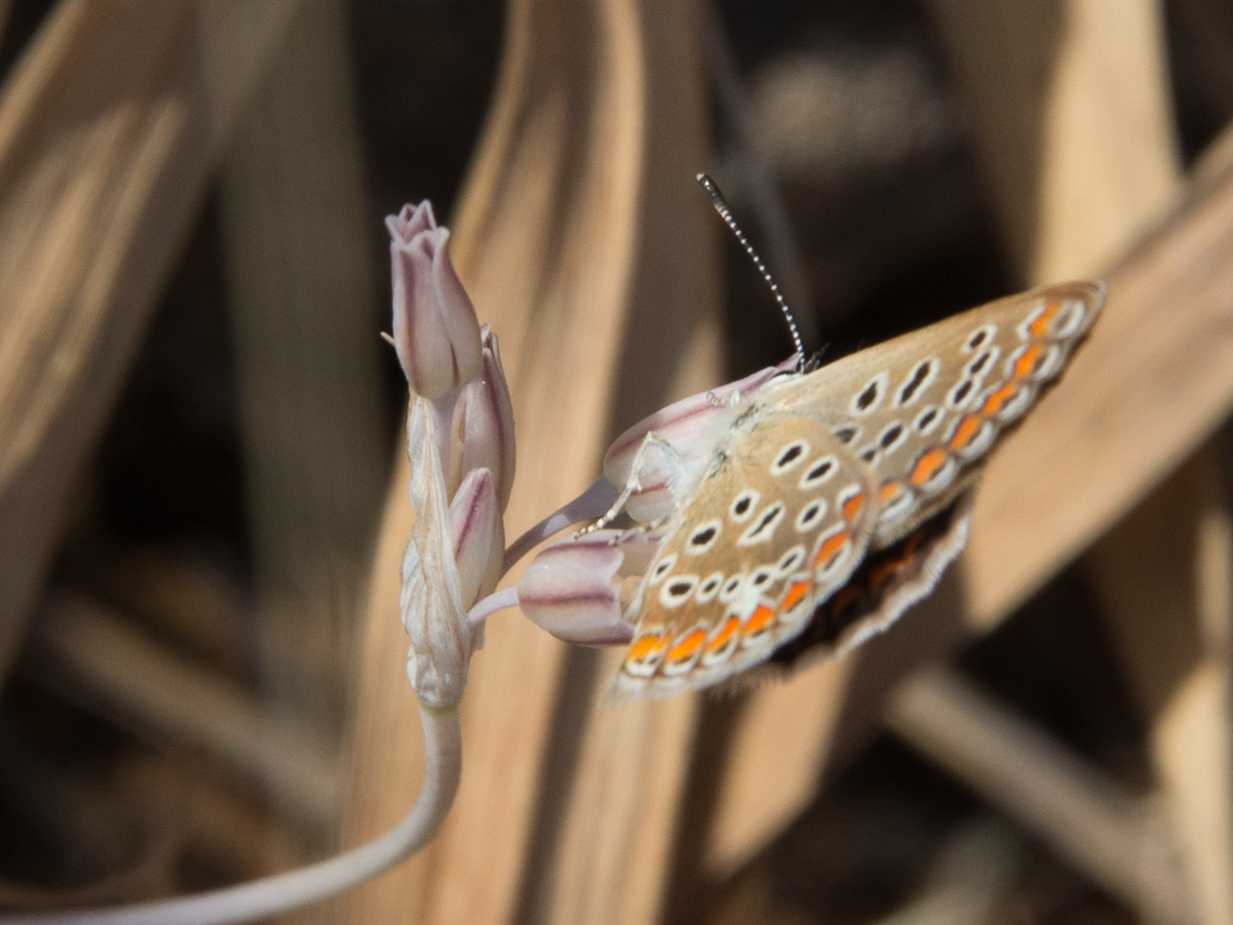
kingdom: Animalia
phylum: Arthropoda
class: Insecta
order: Lepidoptera
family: Lycaenidae
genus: Polyommatus
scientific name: Polyommatus celina
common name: Austaut's blue
